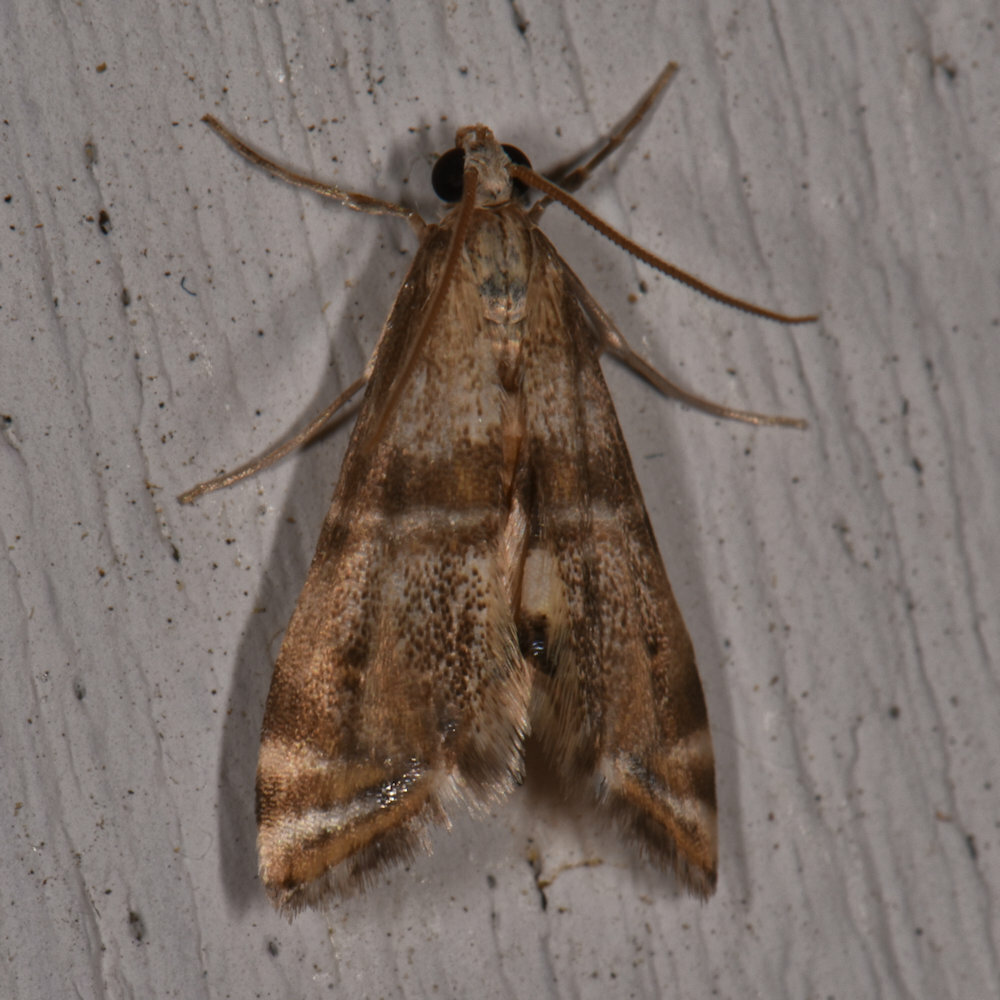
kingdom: Animalia
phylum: Arthropoda
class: Insecta
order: Lepidoptera
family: Crambidae
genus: Petrophila
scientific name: Petrophila bifascialis
